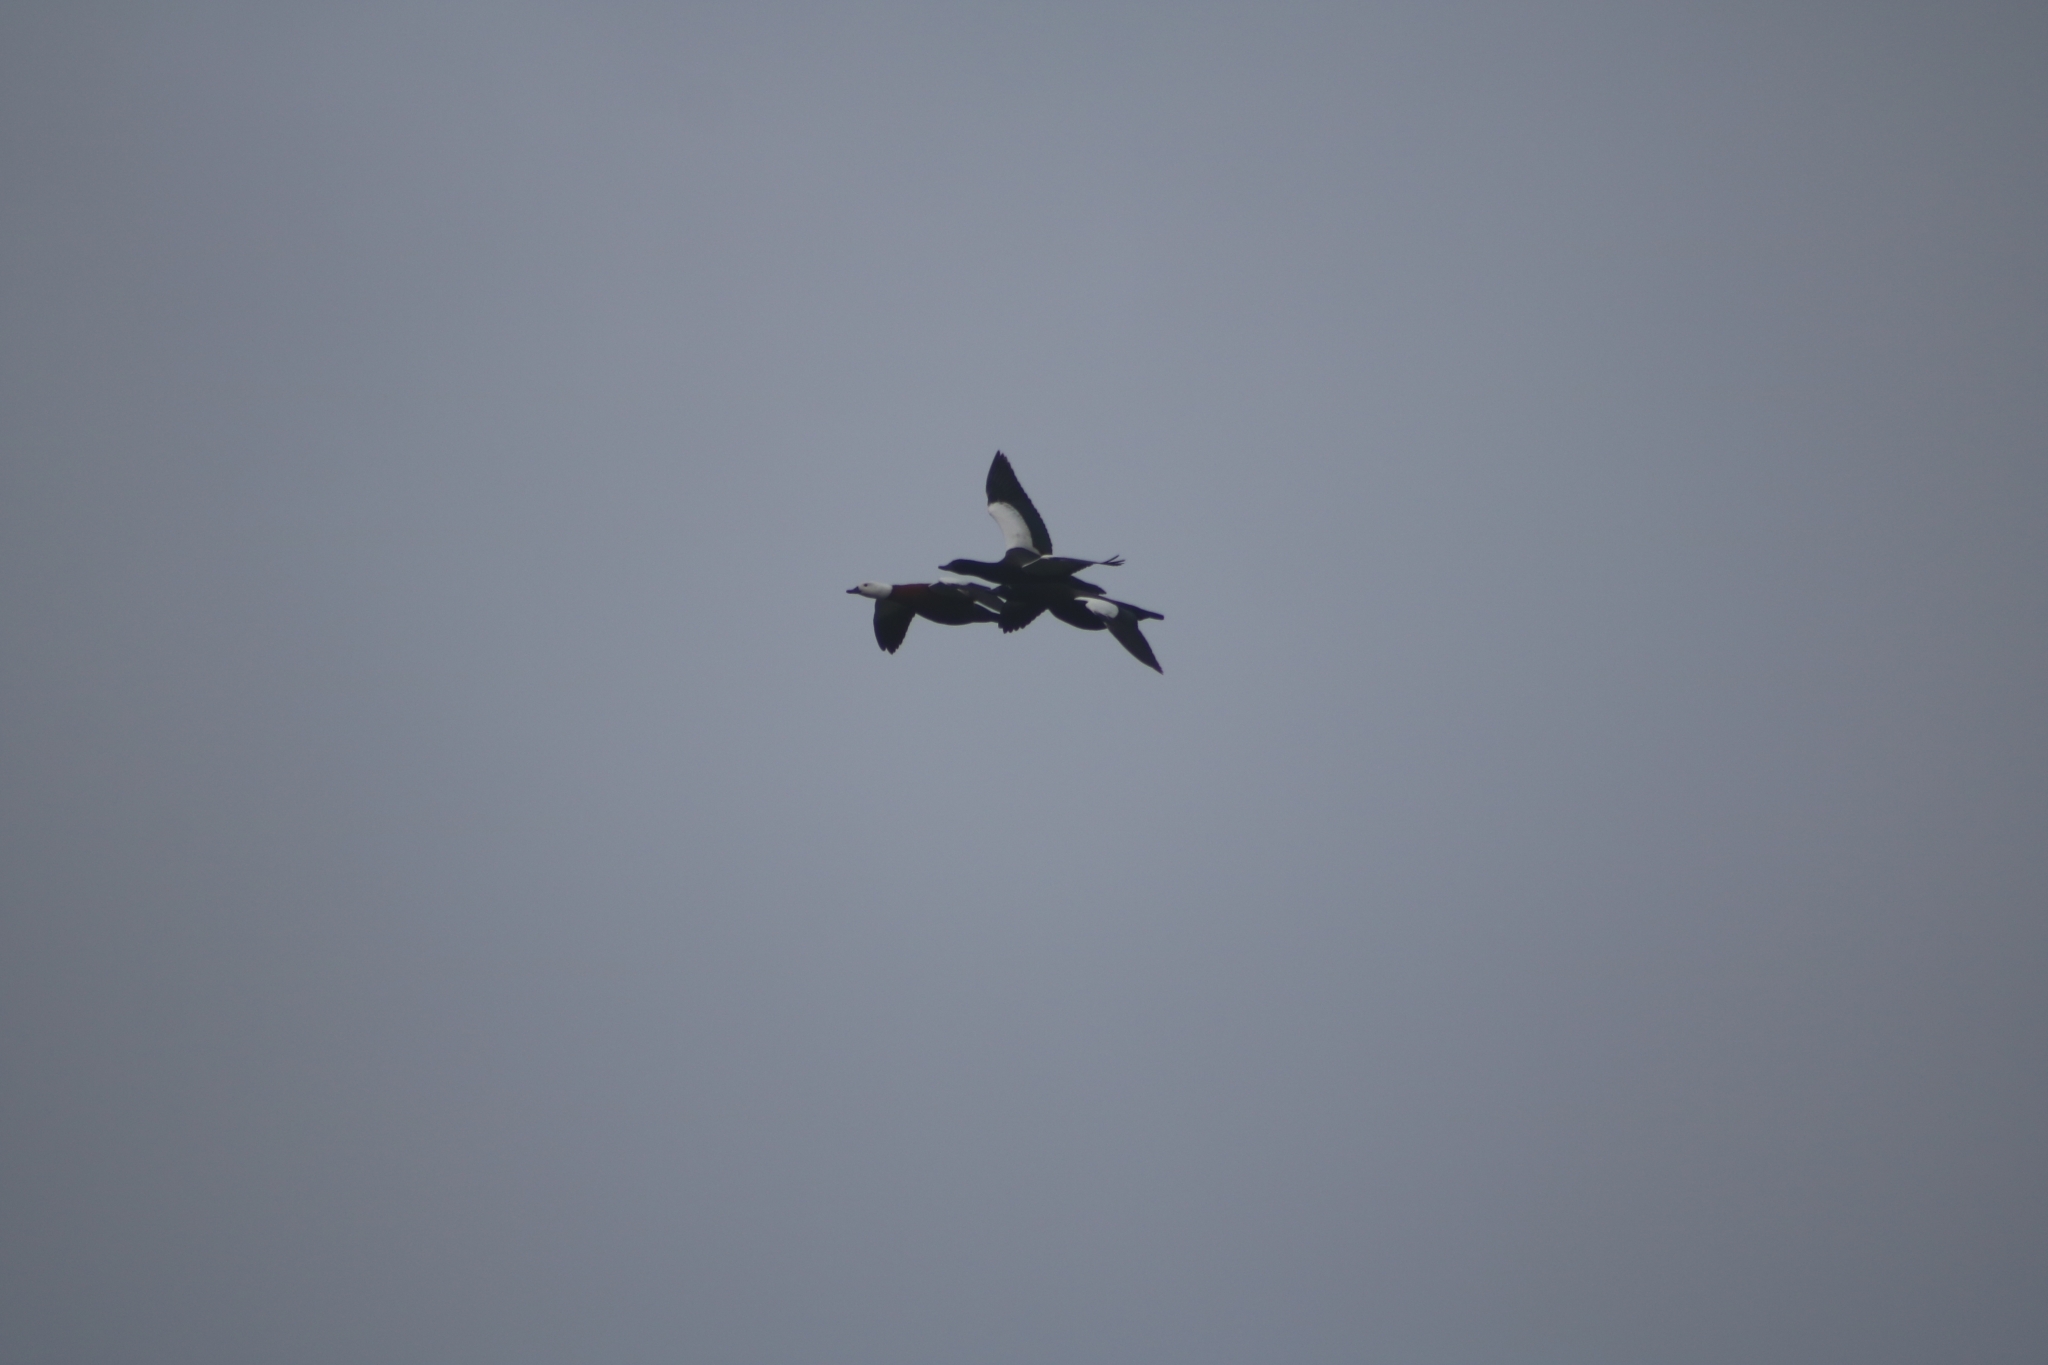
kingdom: Animalia
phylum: Chordata
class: Aves
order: Anseriformes
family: Anatidae
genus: Tadorna
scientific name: Tadorna variegata
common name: Paradise shelduck
